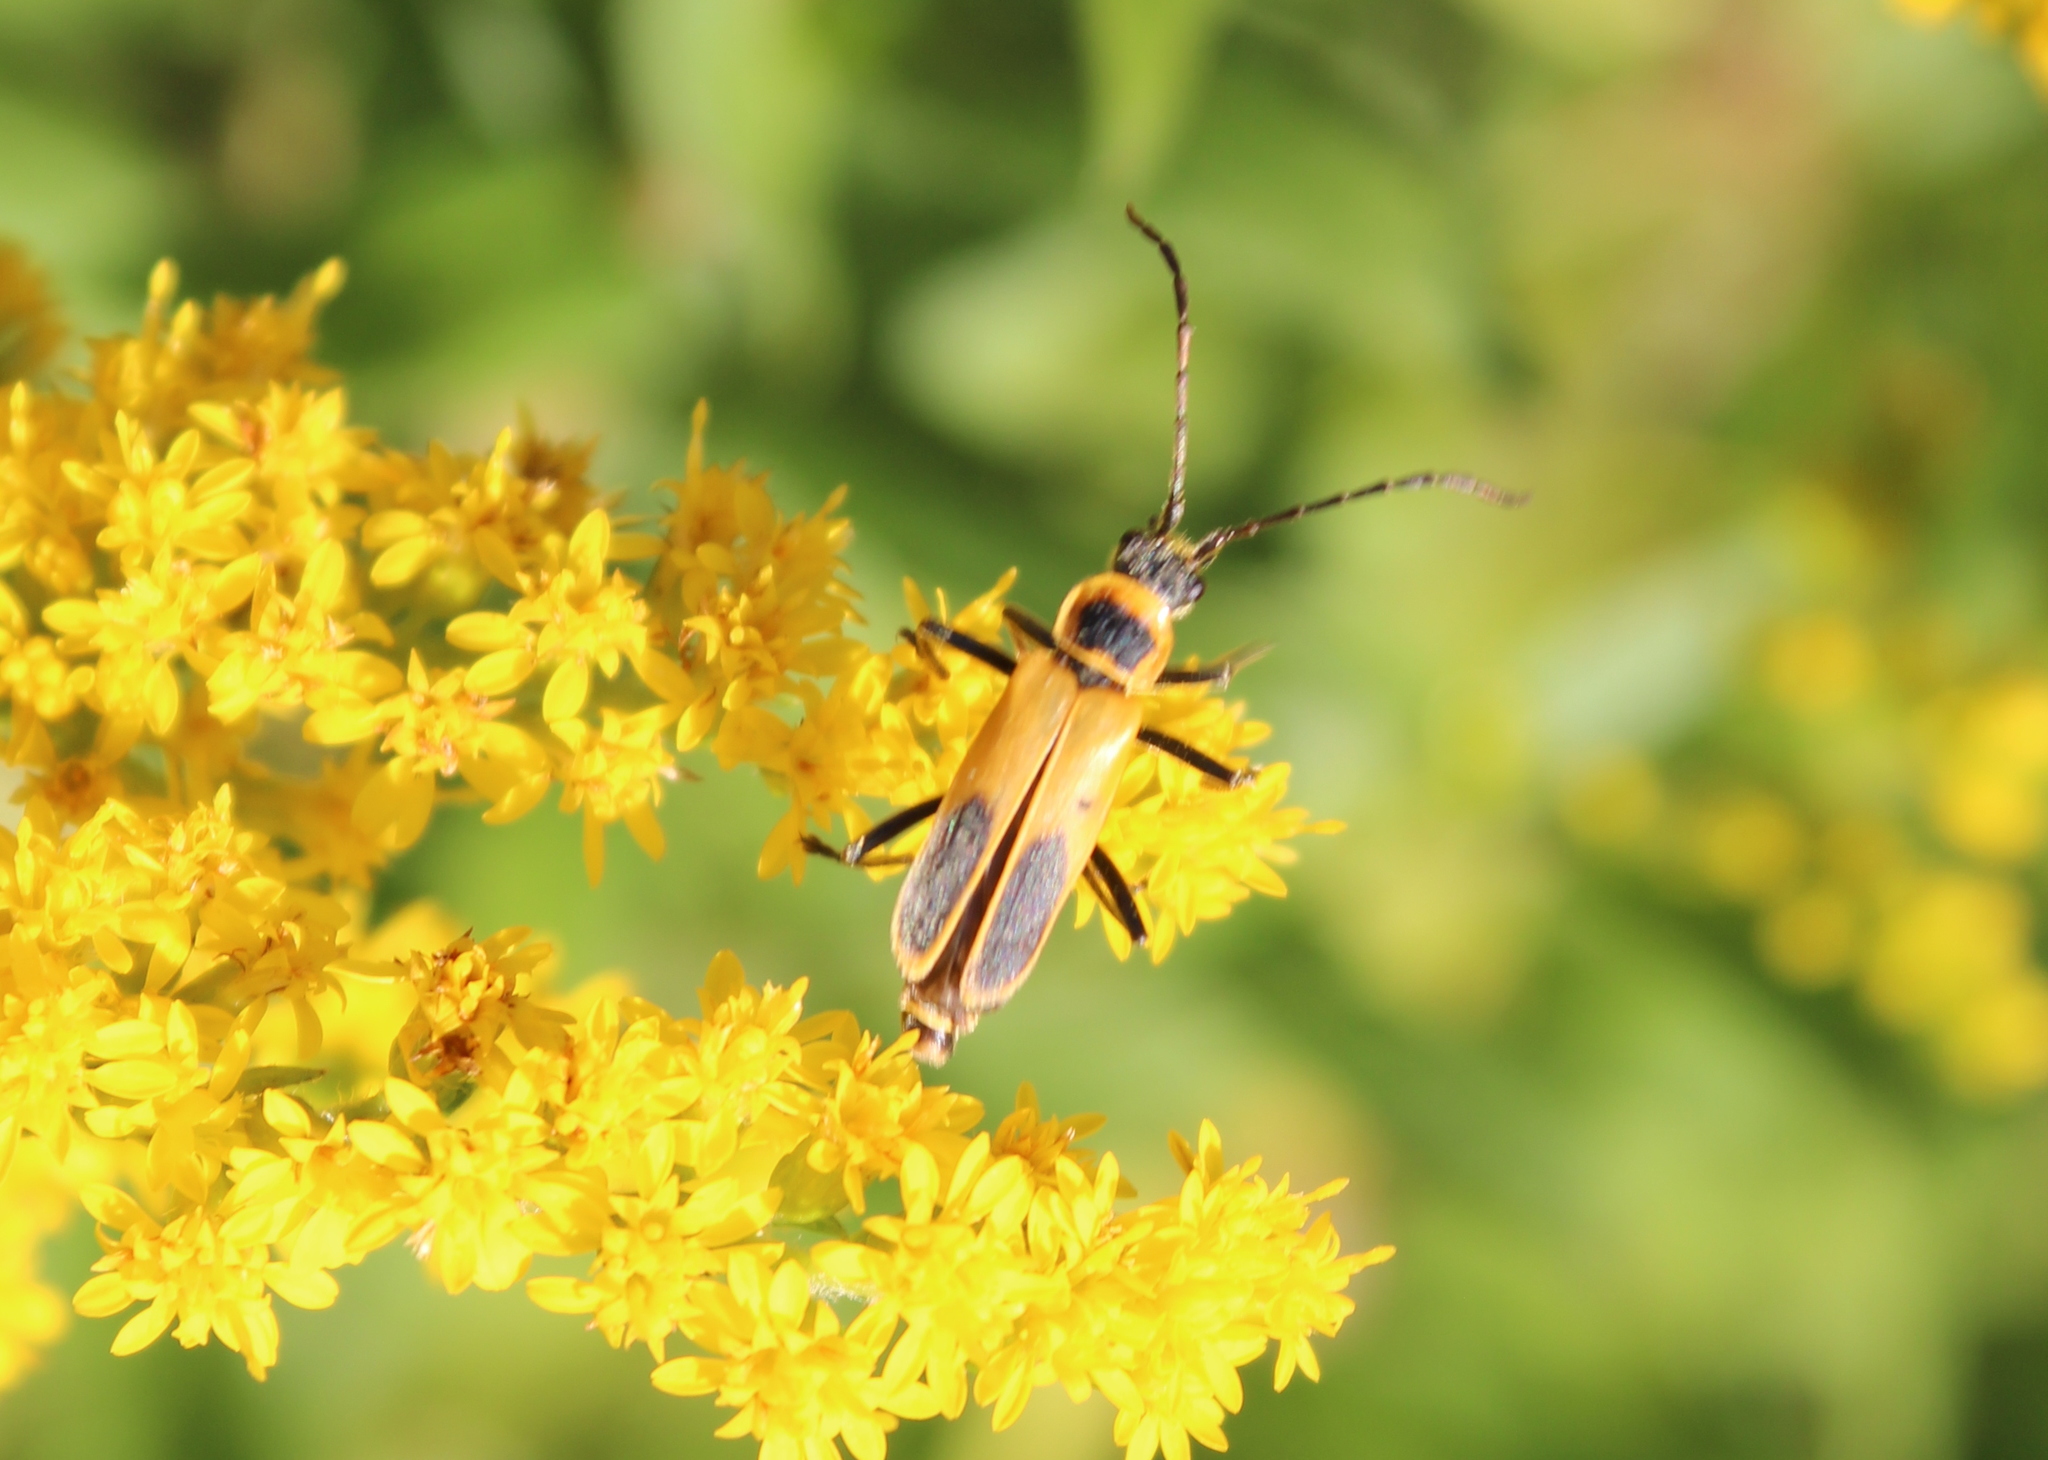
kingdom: Animalia
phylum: Arthropoda
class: Insecta
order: Coleoptera
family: Cantharidae
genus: Chauliognathus
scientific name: Chauliognathus pensylvanicus
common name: Goldenrod soldier beetle
